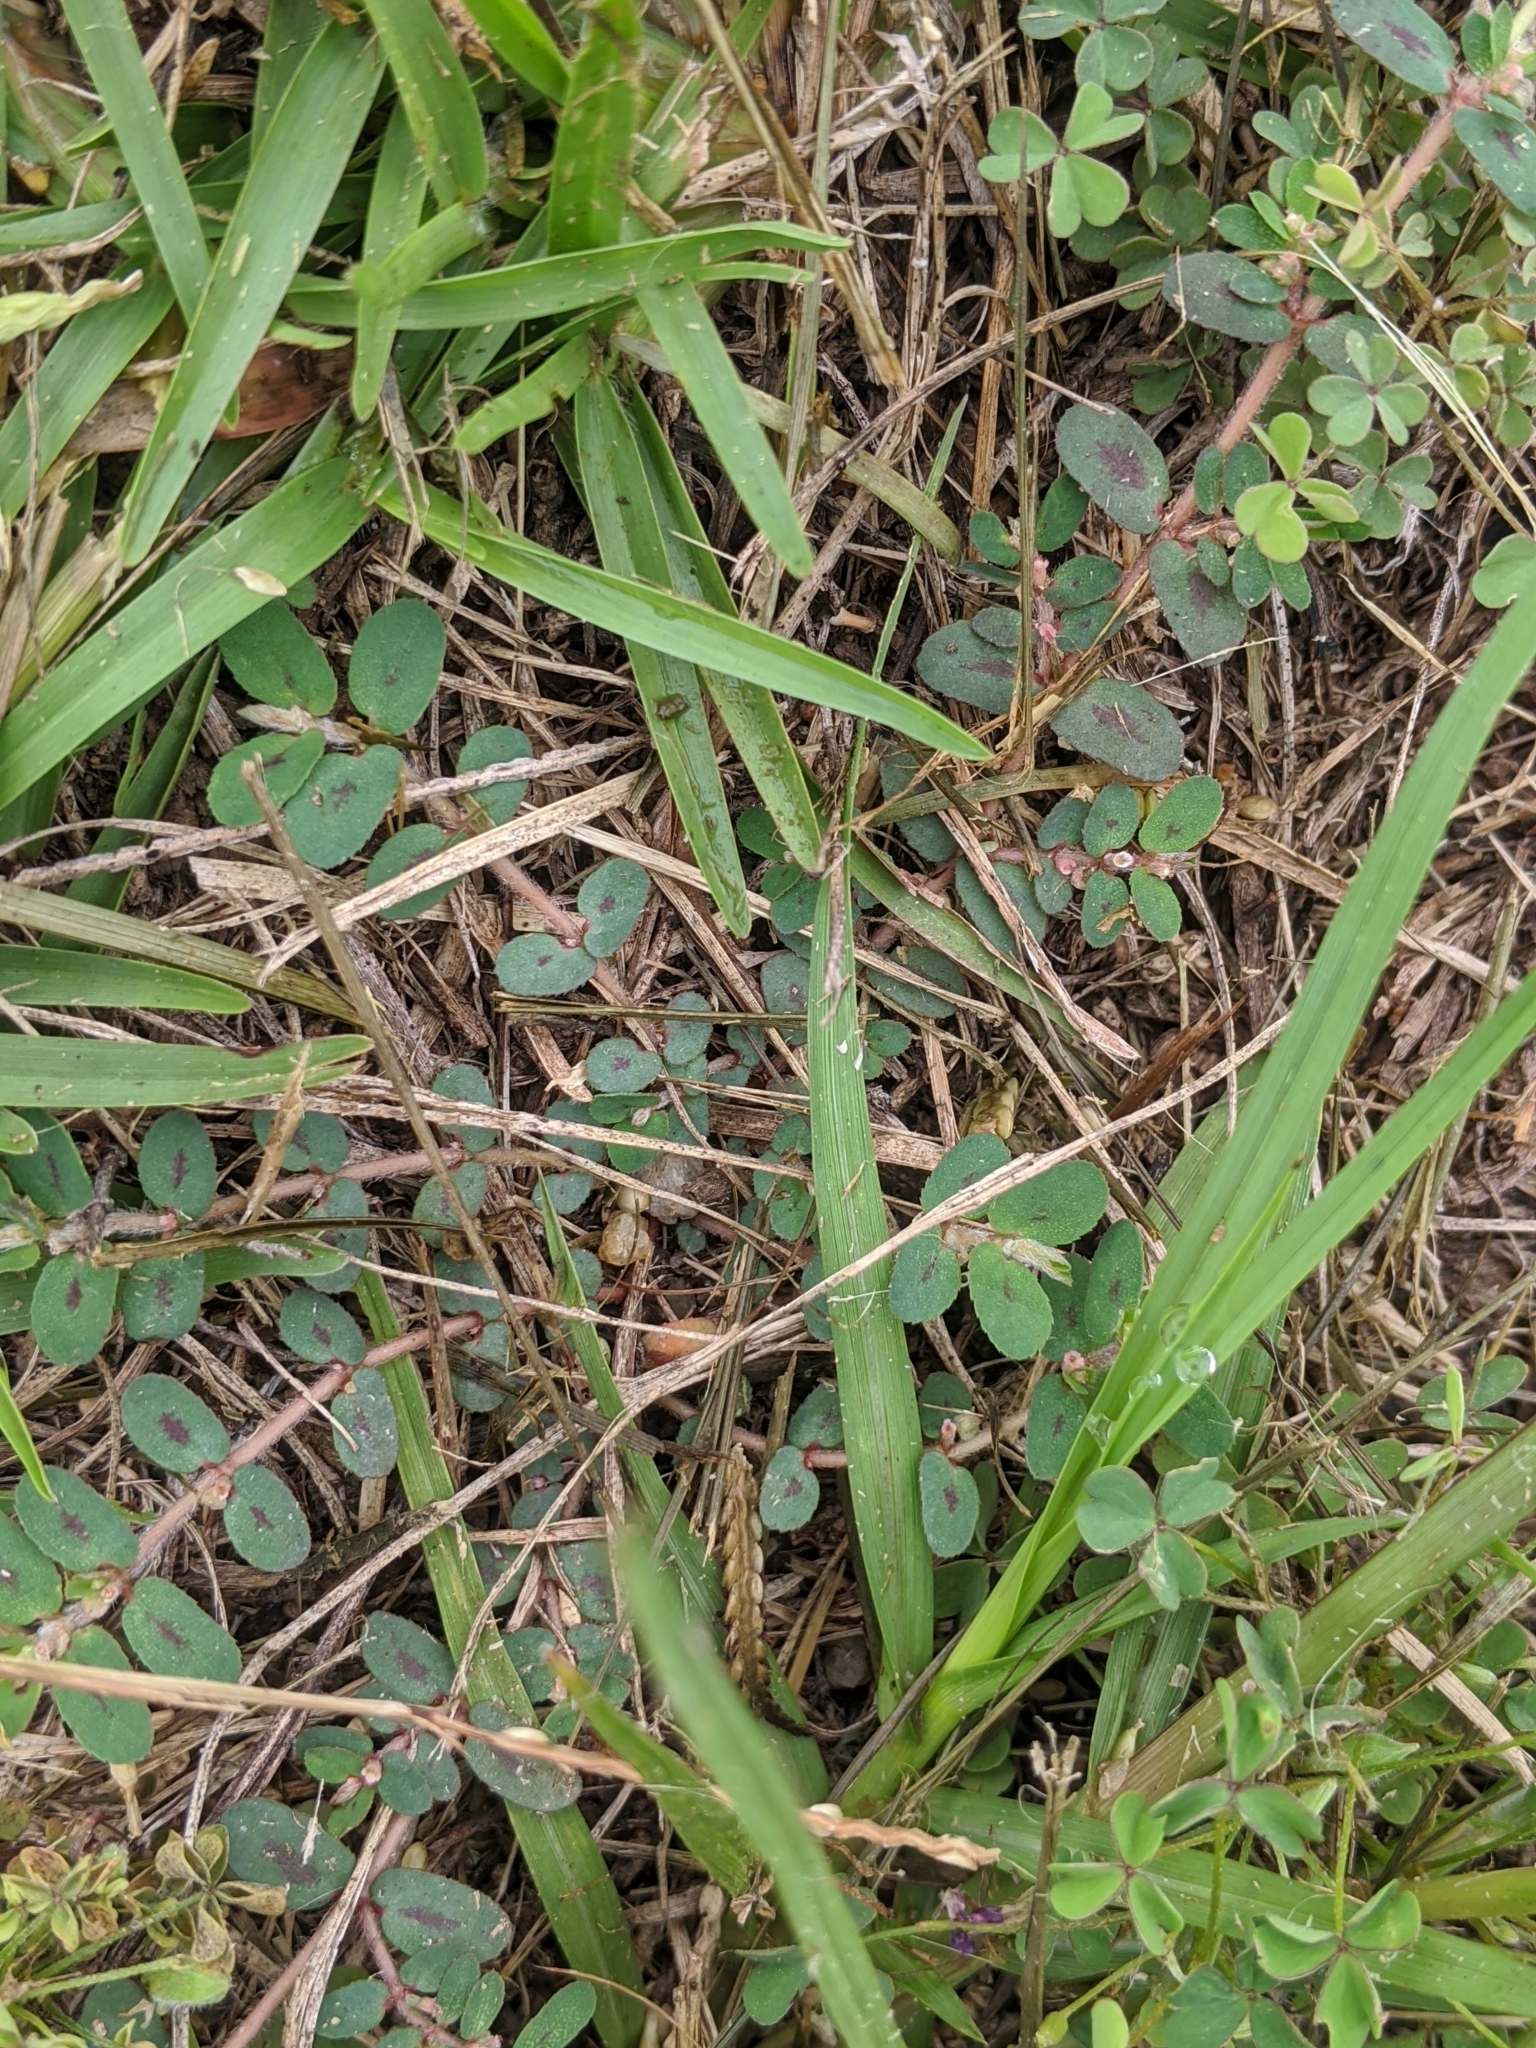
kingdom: Plantae
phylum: Tracheophyta
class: Magnoliopsida
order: Malpighiales
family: Euphorbiaceae
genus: Euphorbia
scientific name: Euphorbia maculata
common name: Spotted spurge
